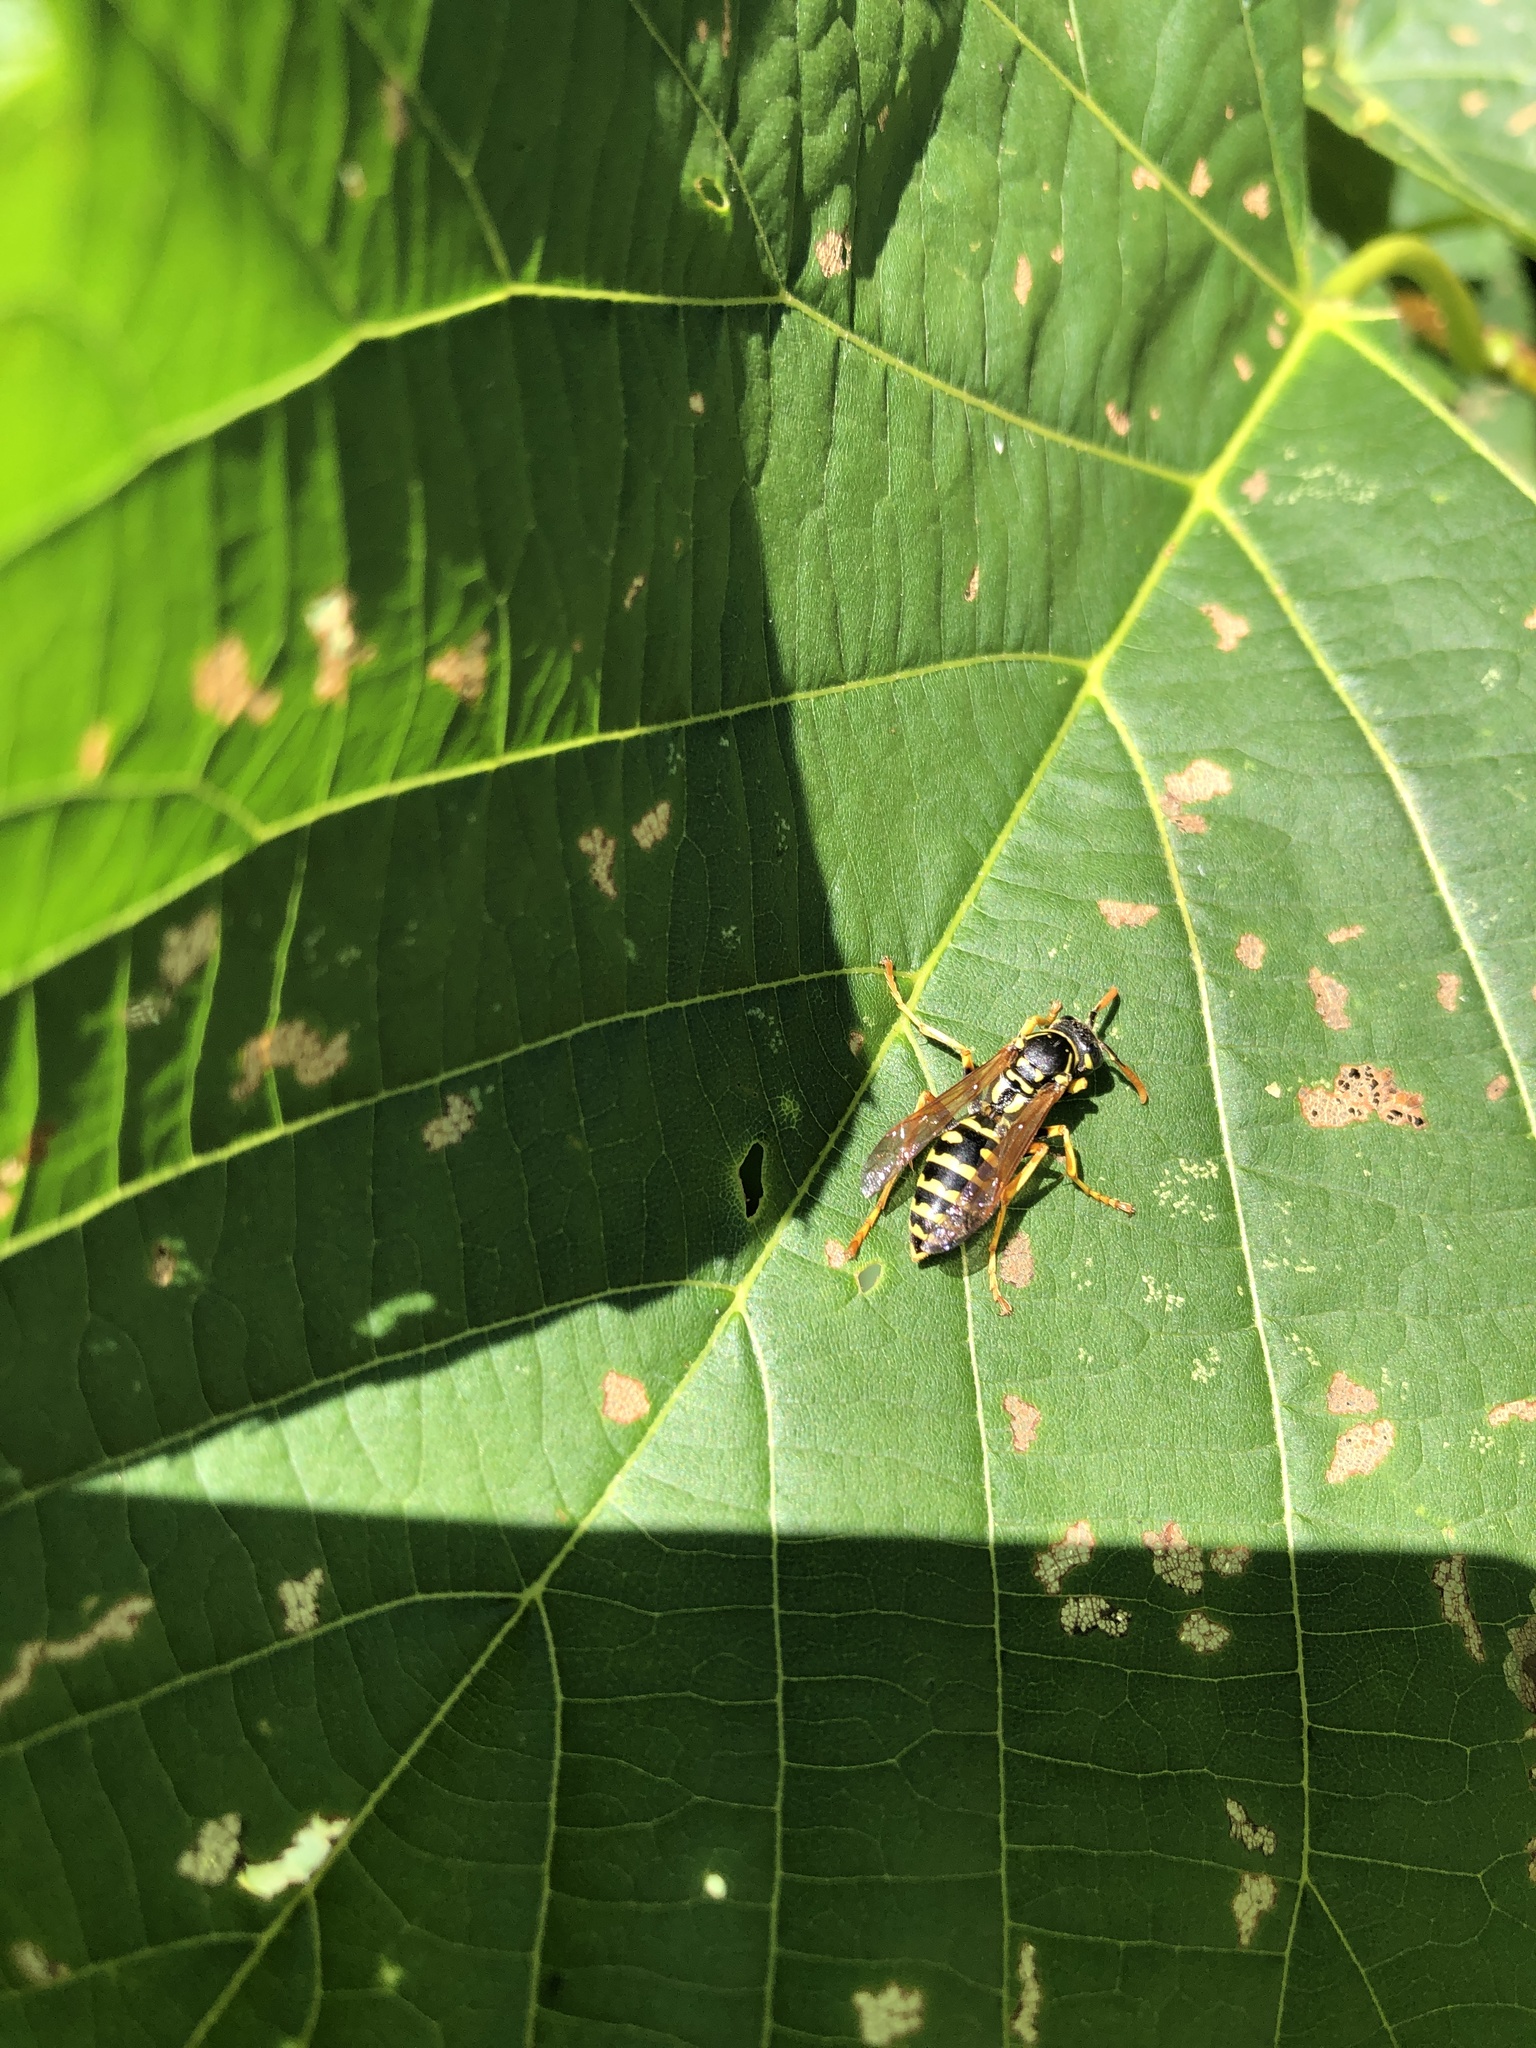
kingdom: Animalia
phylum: Arthropoda
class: Insecta
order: Hymenoptera
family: Eumenidae
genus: Polistes
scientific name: Polistes dominula
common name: Paper wasp
